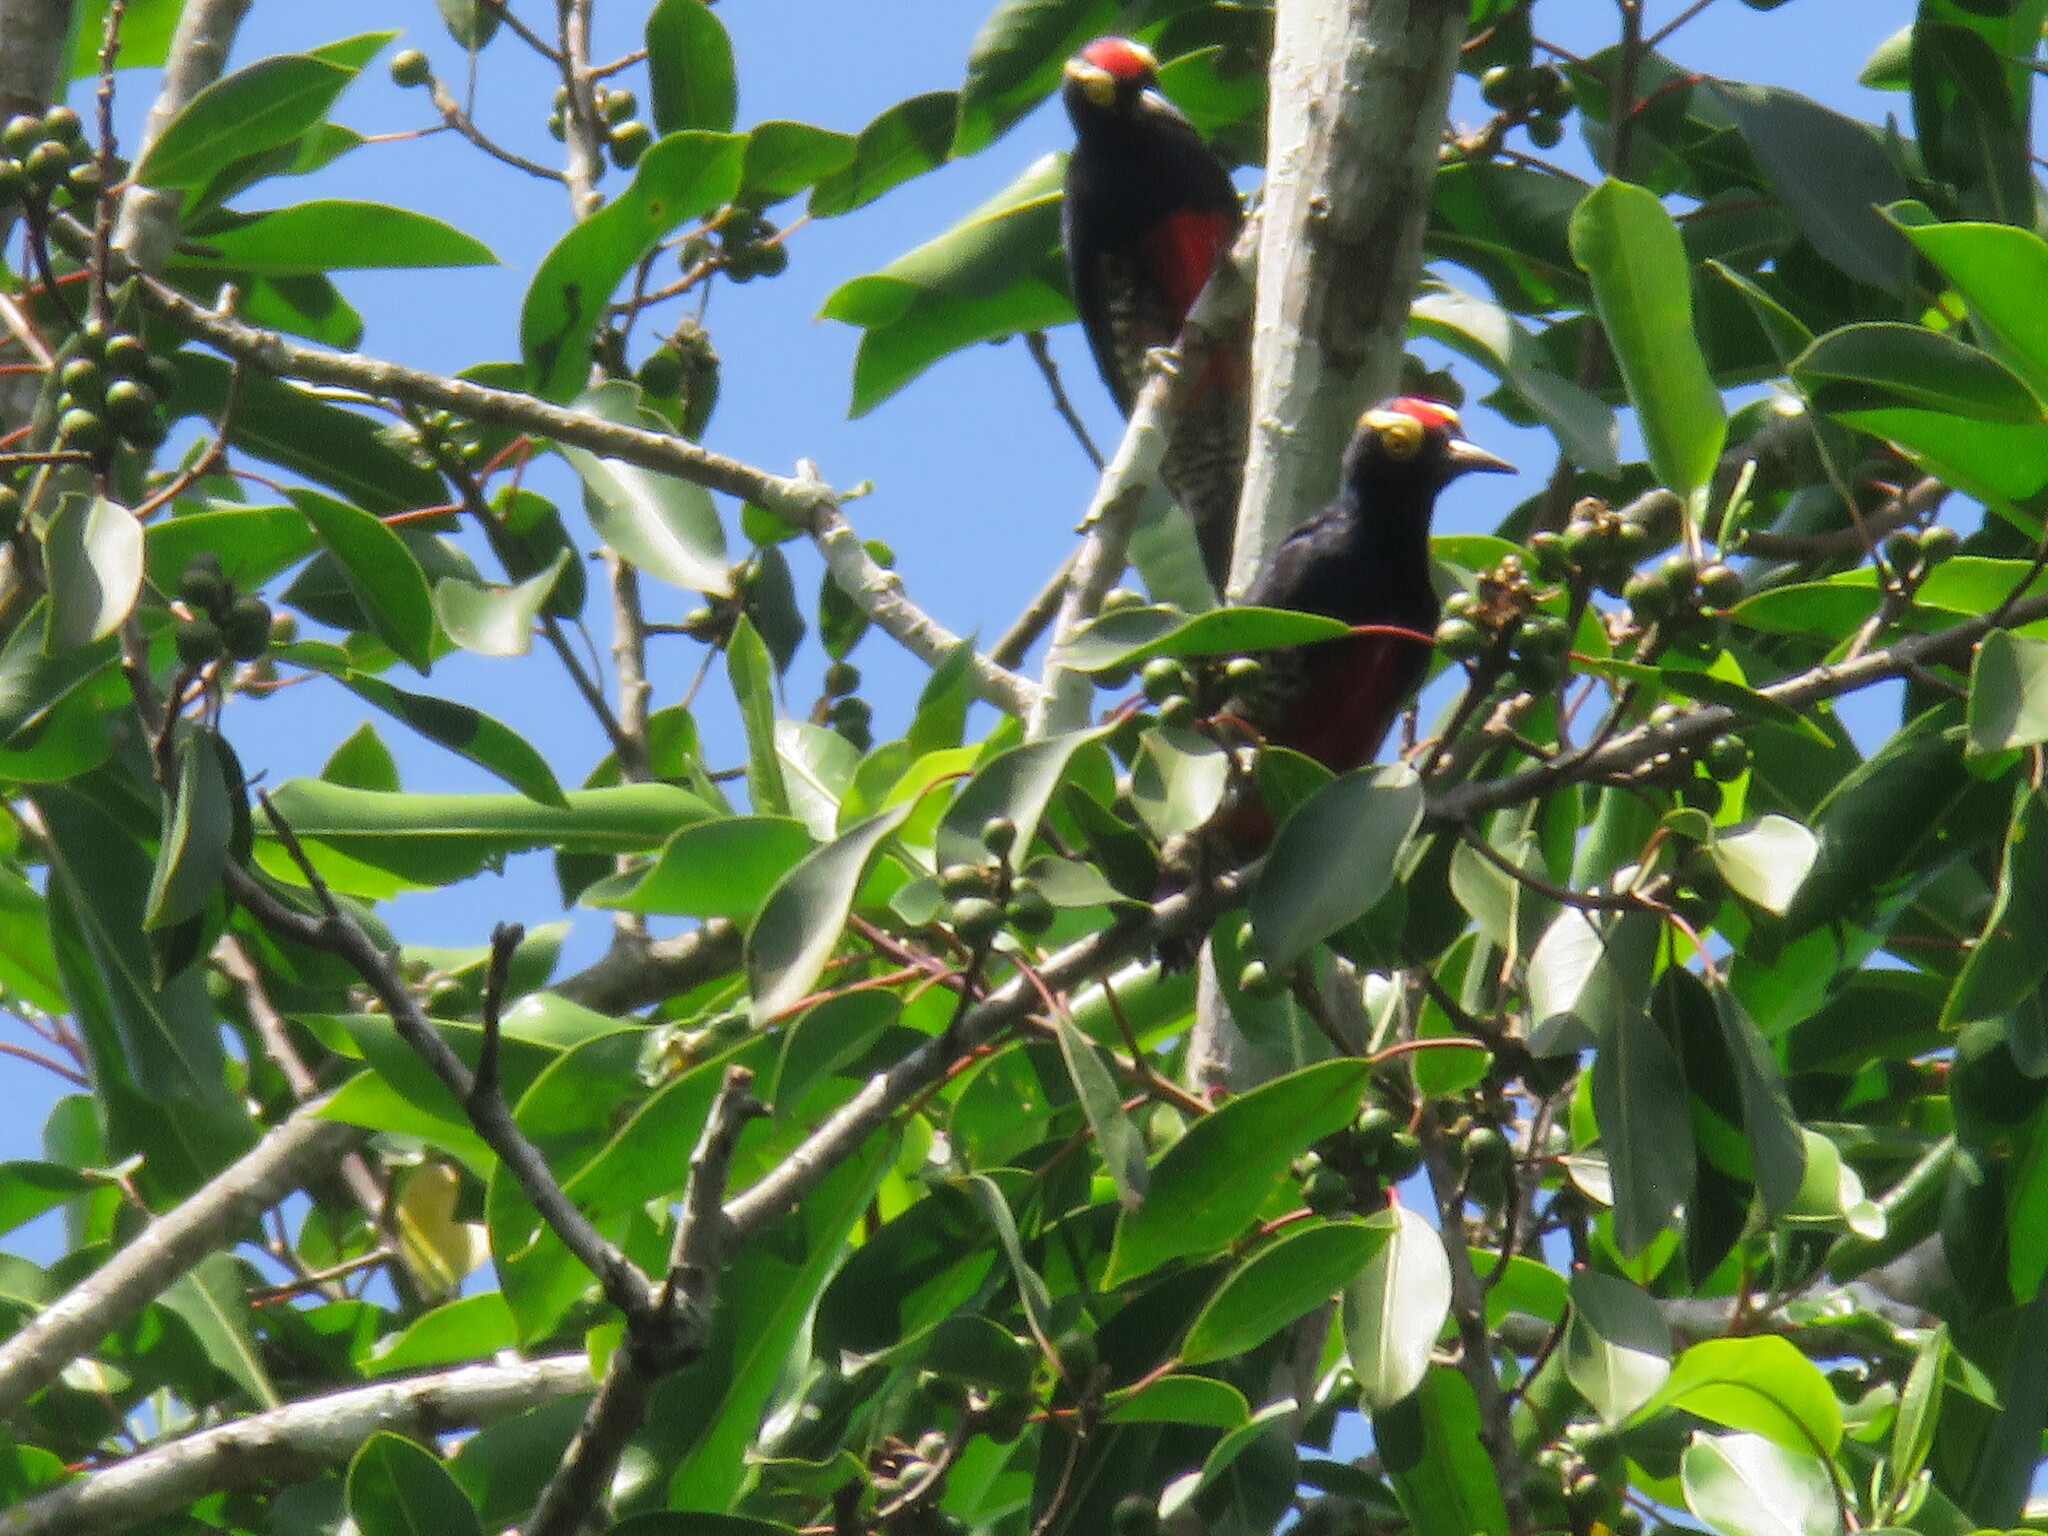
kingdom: Animalia
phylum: Chordata
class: Aves
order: Piciformes
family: Picidae
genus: Melanerpes
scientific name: Melanerpes cruentatus
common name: Yellow-tufted woodpecker
